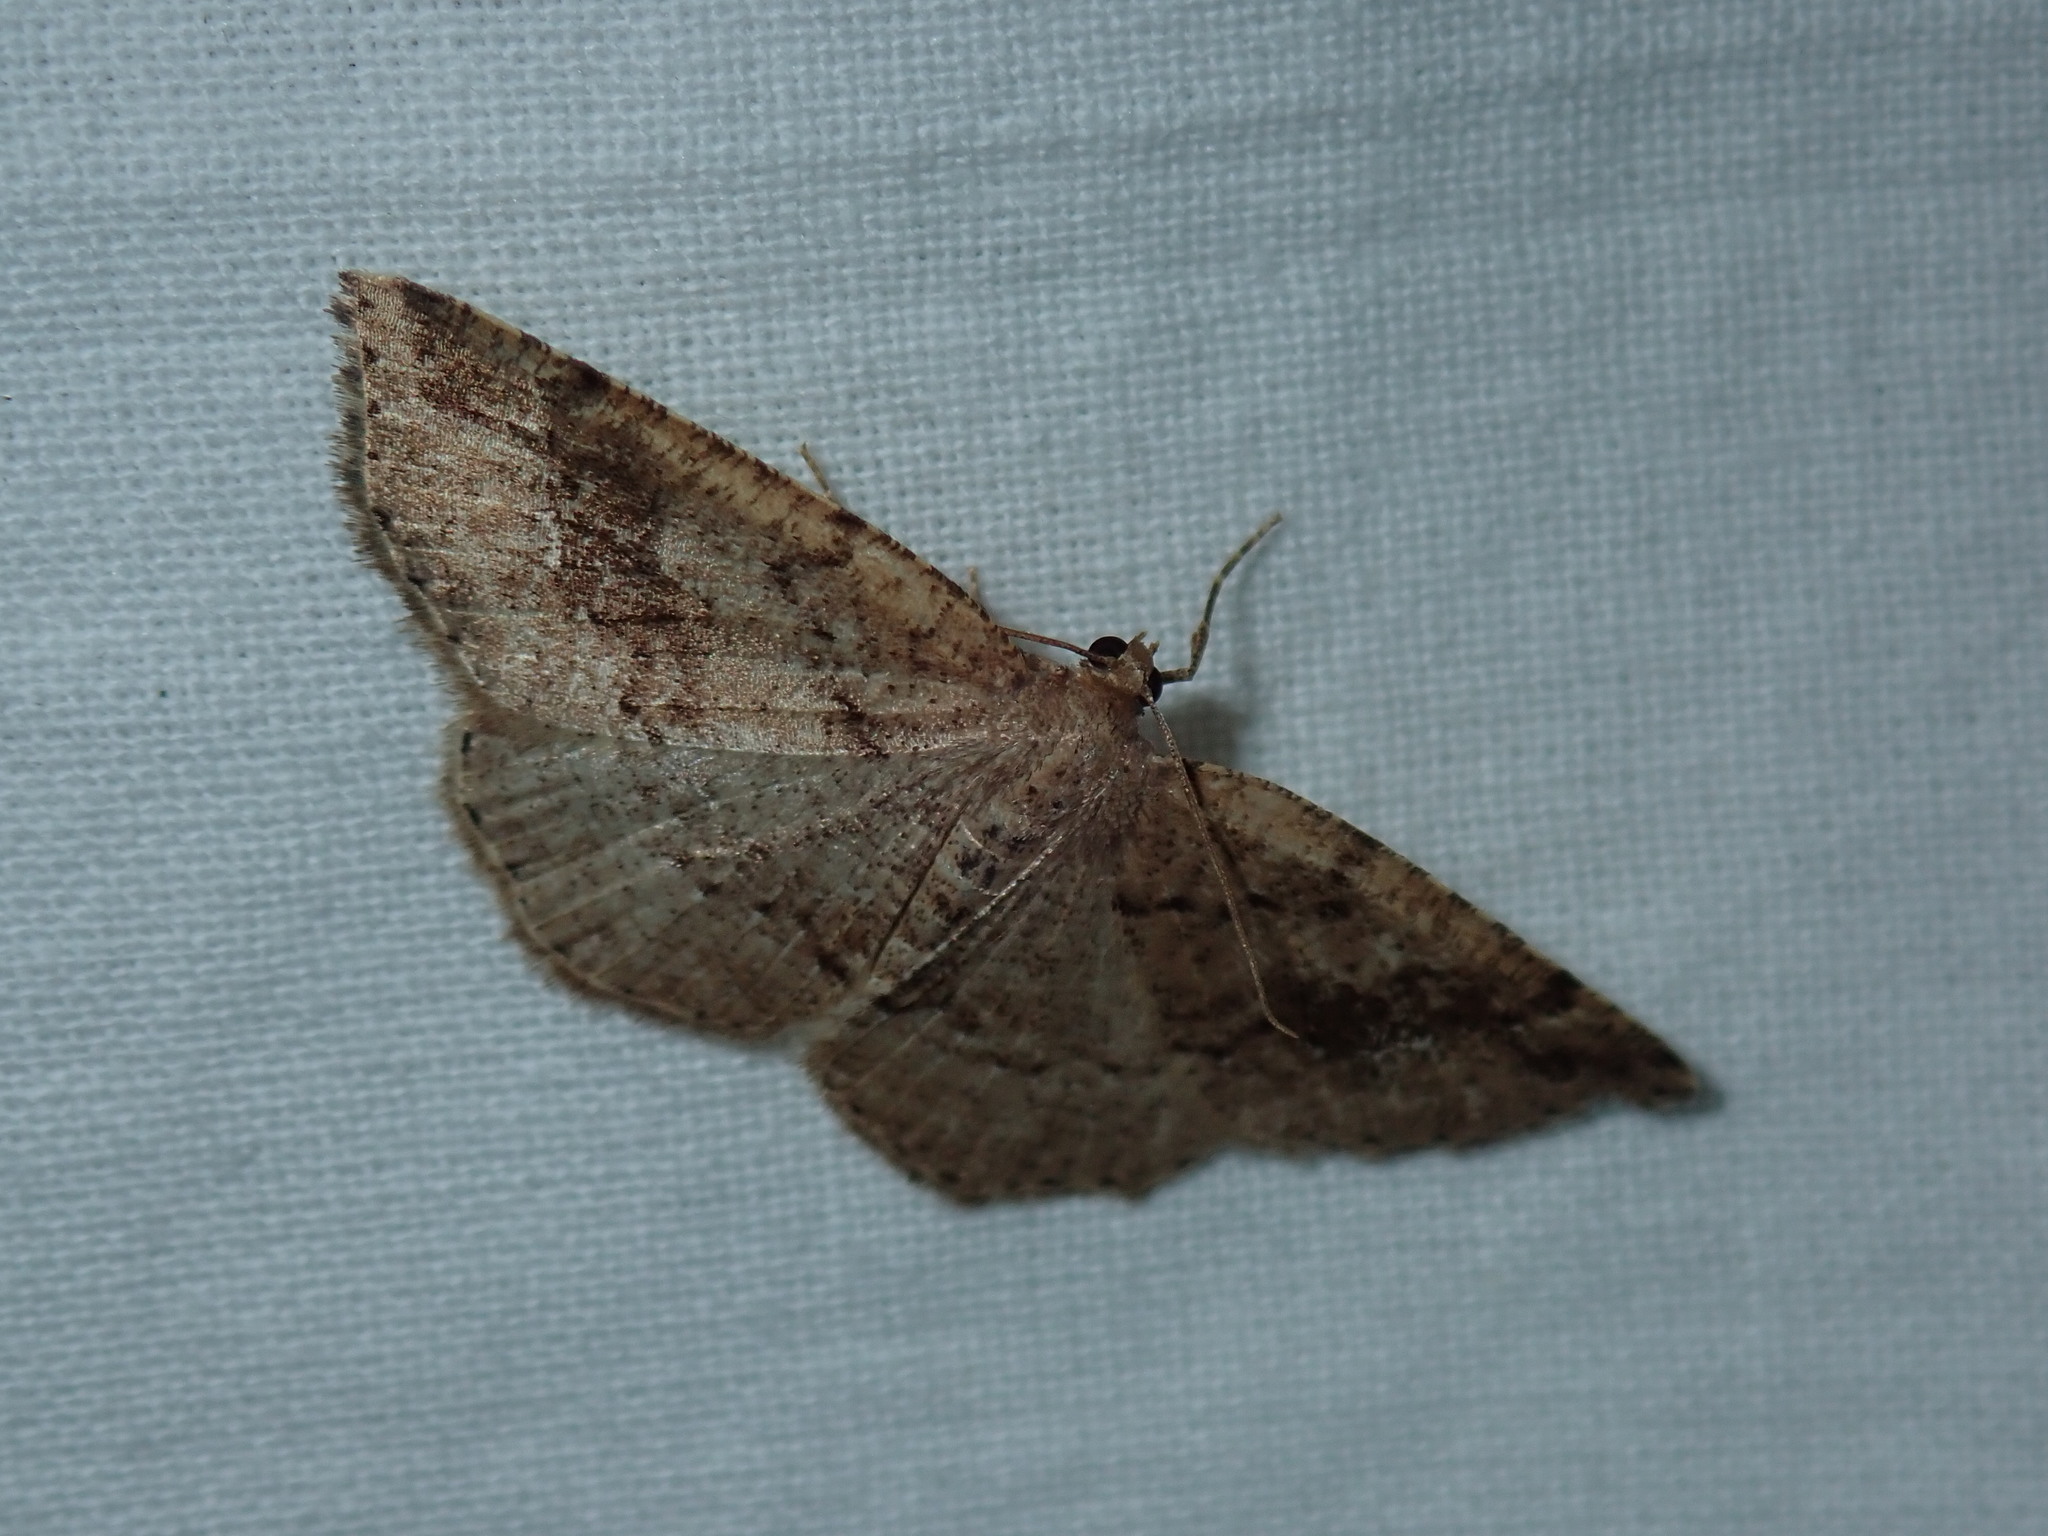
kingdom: Animalia
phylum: Arthropoda
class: Insecta
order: Lepidoptera
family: Geometridae
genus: Homochlodes
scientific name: Homochlodes fritillaria
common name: Pale homochlodes
